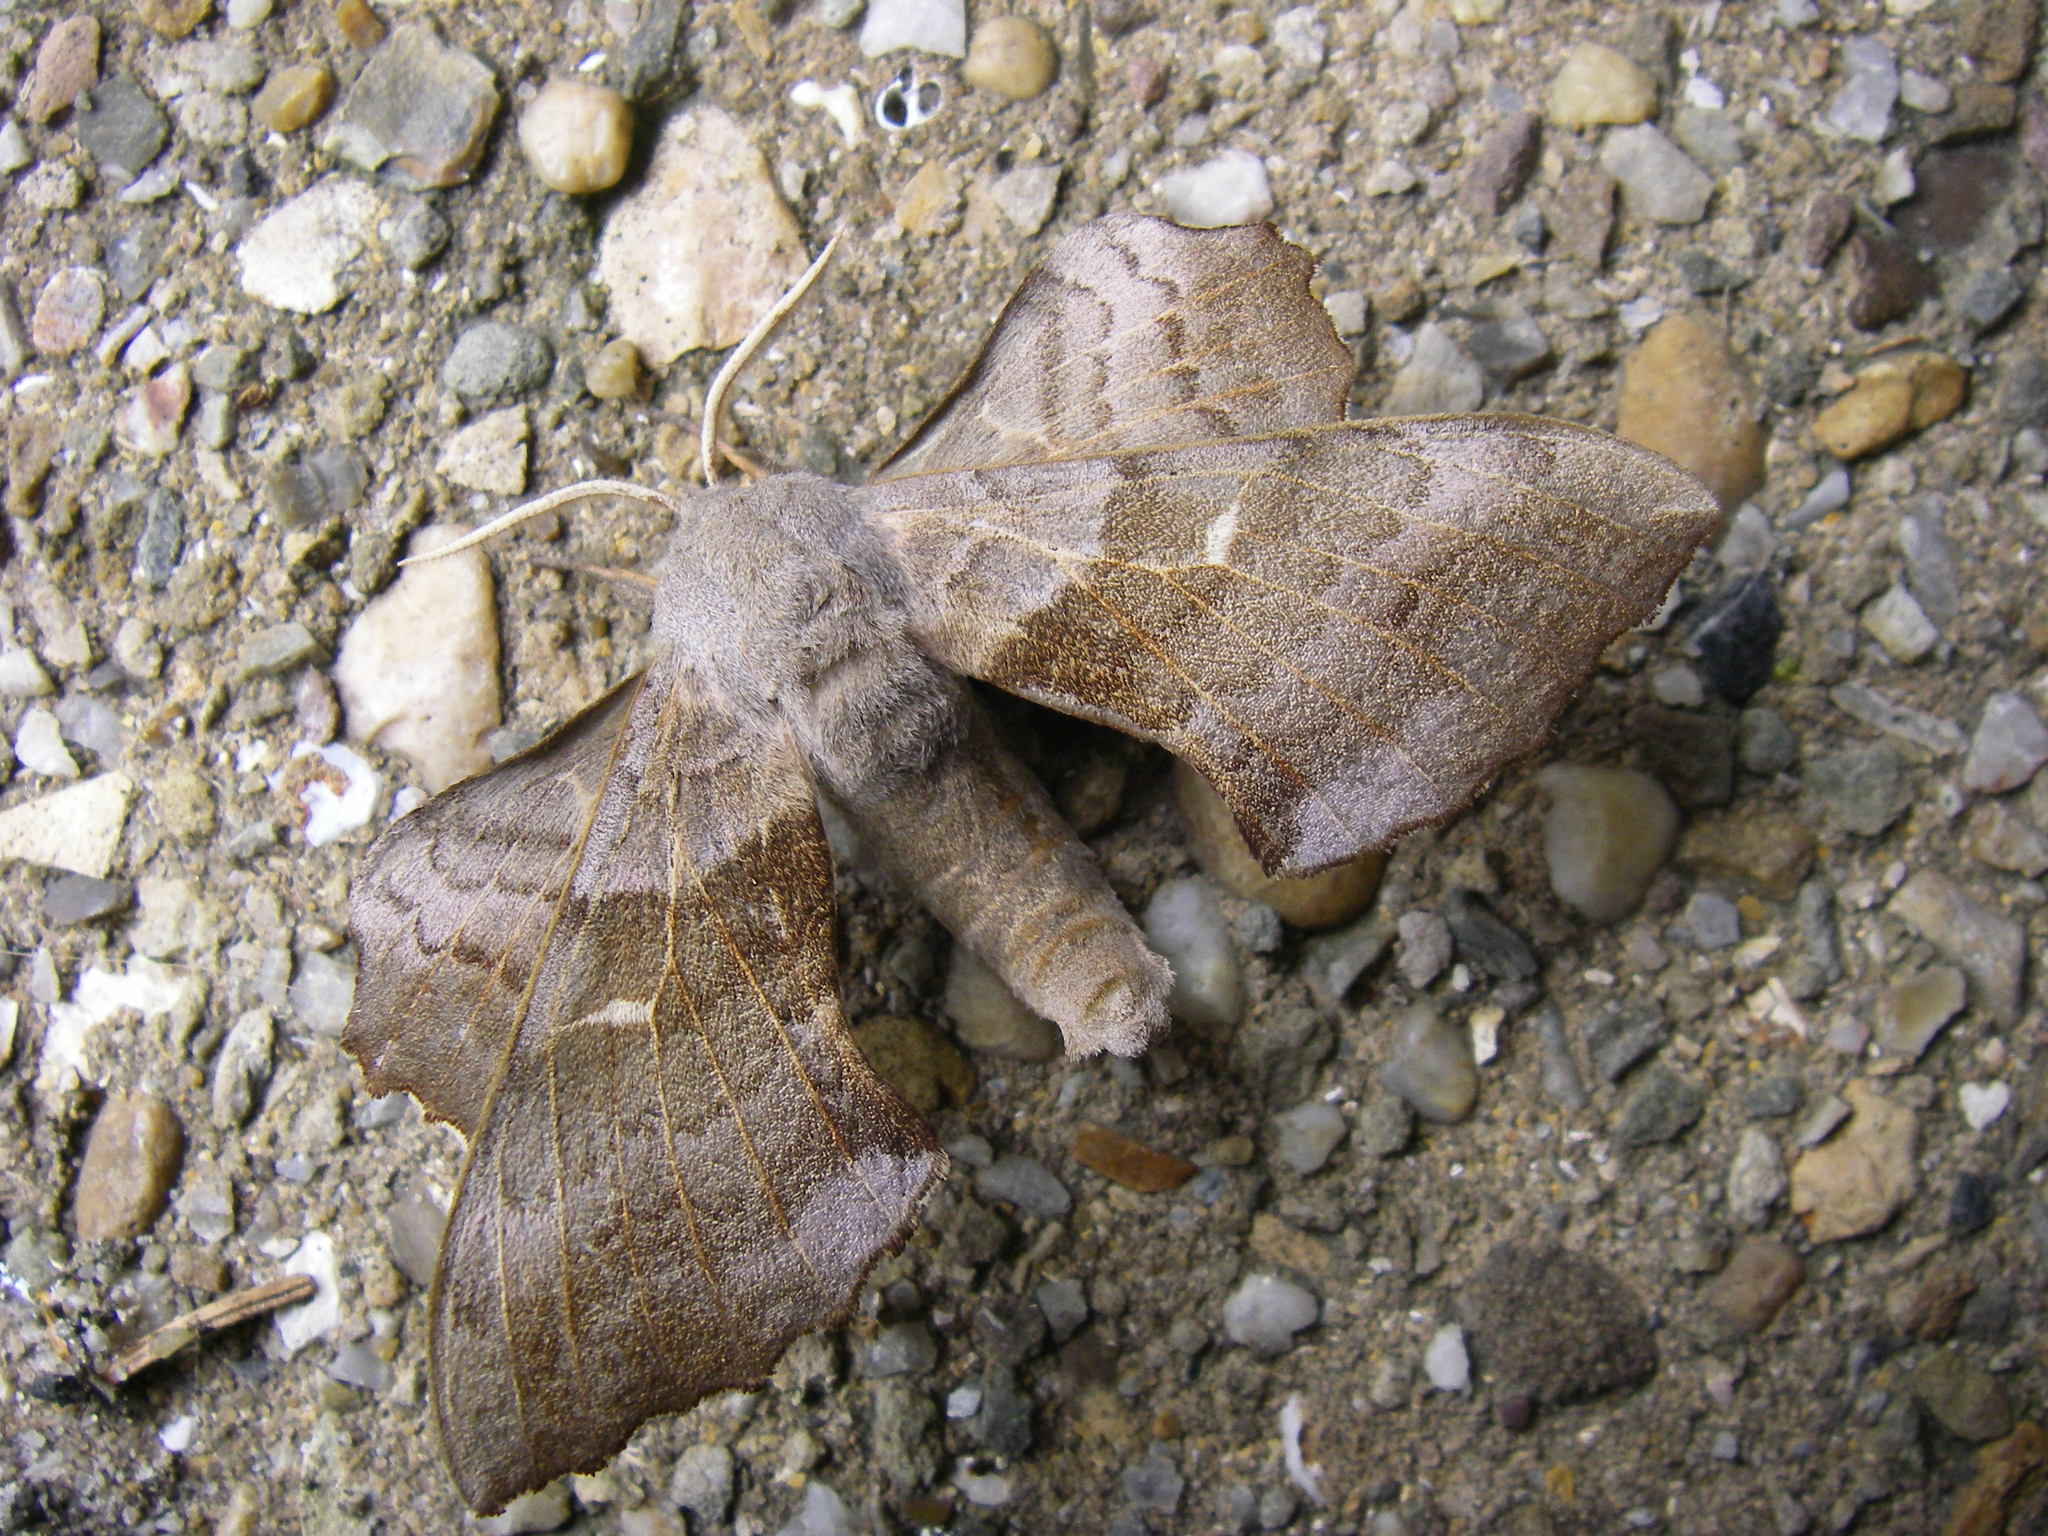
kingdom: Animalia
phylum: Arthropoda
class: Insecta
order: Lepidoptera
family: Sphingidae
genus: Laothoe
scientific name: Laothoe populi
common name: Poplar hawk-moth
